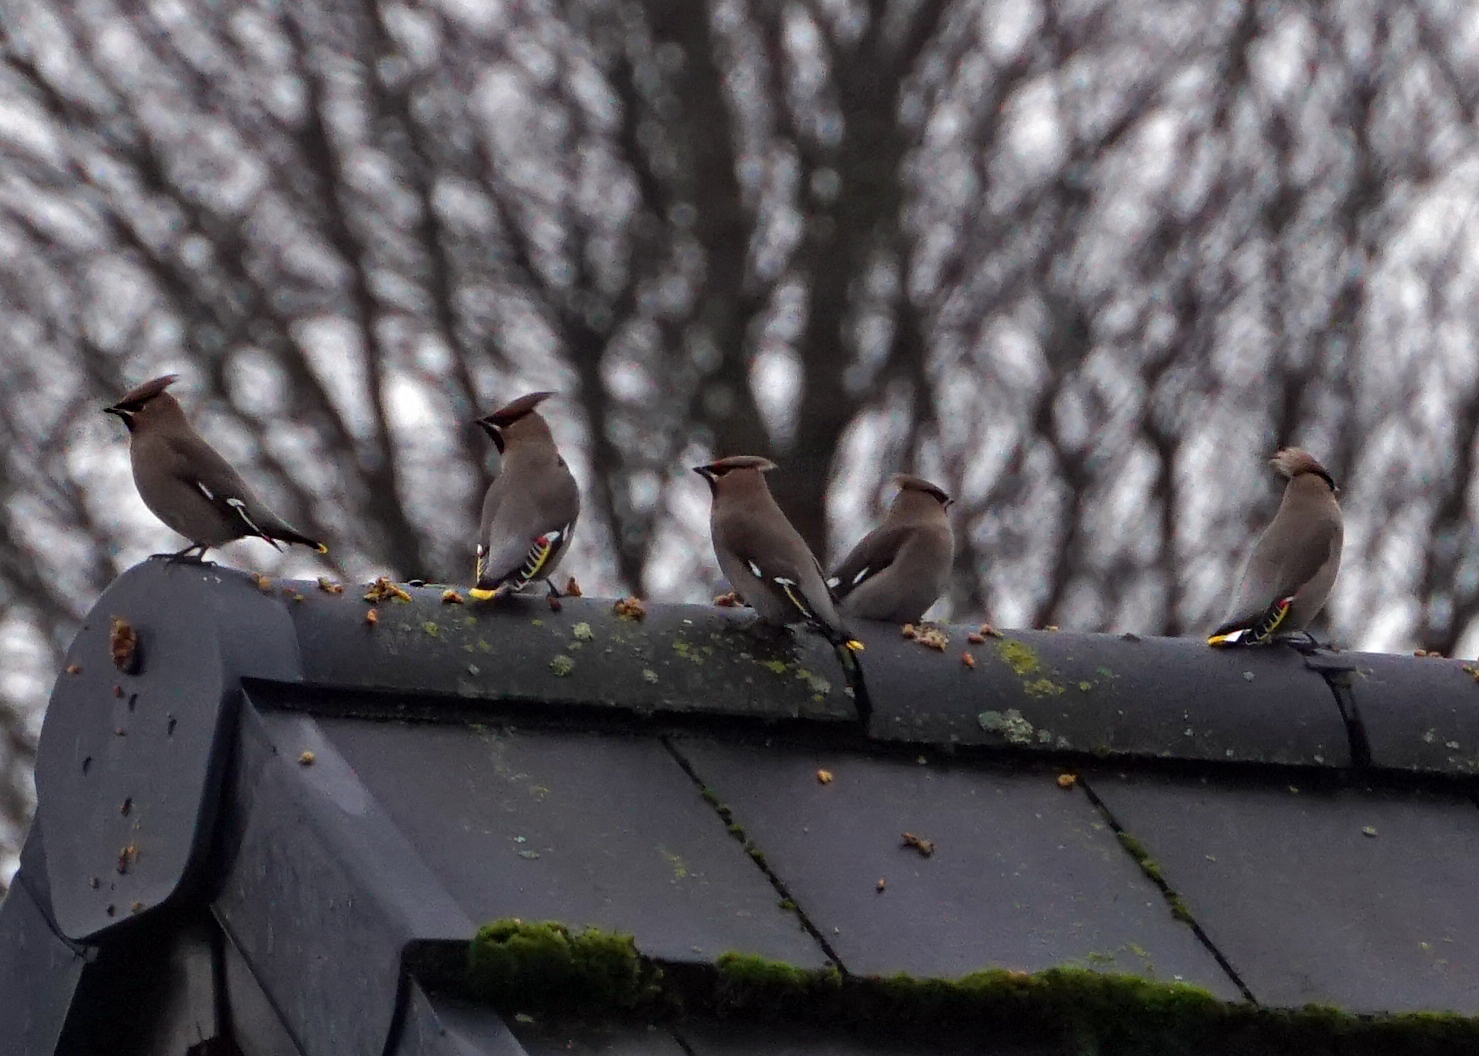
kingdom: Animalia
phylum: Chordata
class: Aves
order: Passeriformes
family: Bombycillidae
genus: Bombycilla
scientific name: Bombycilla garrulus
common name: Bohemian waxwing
